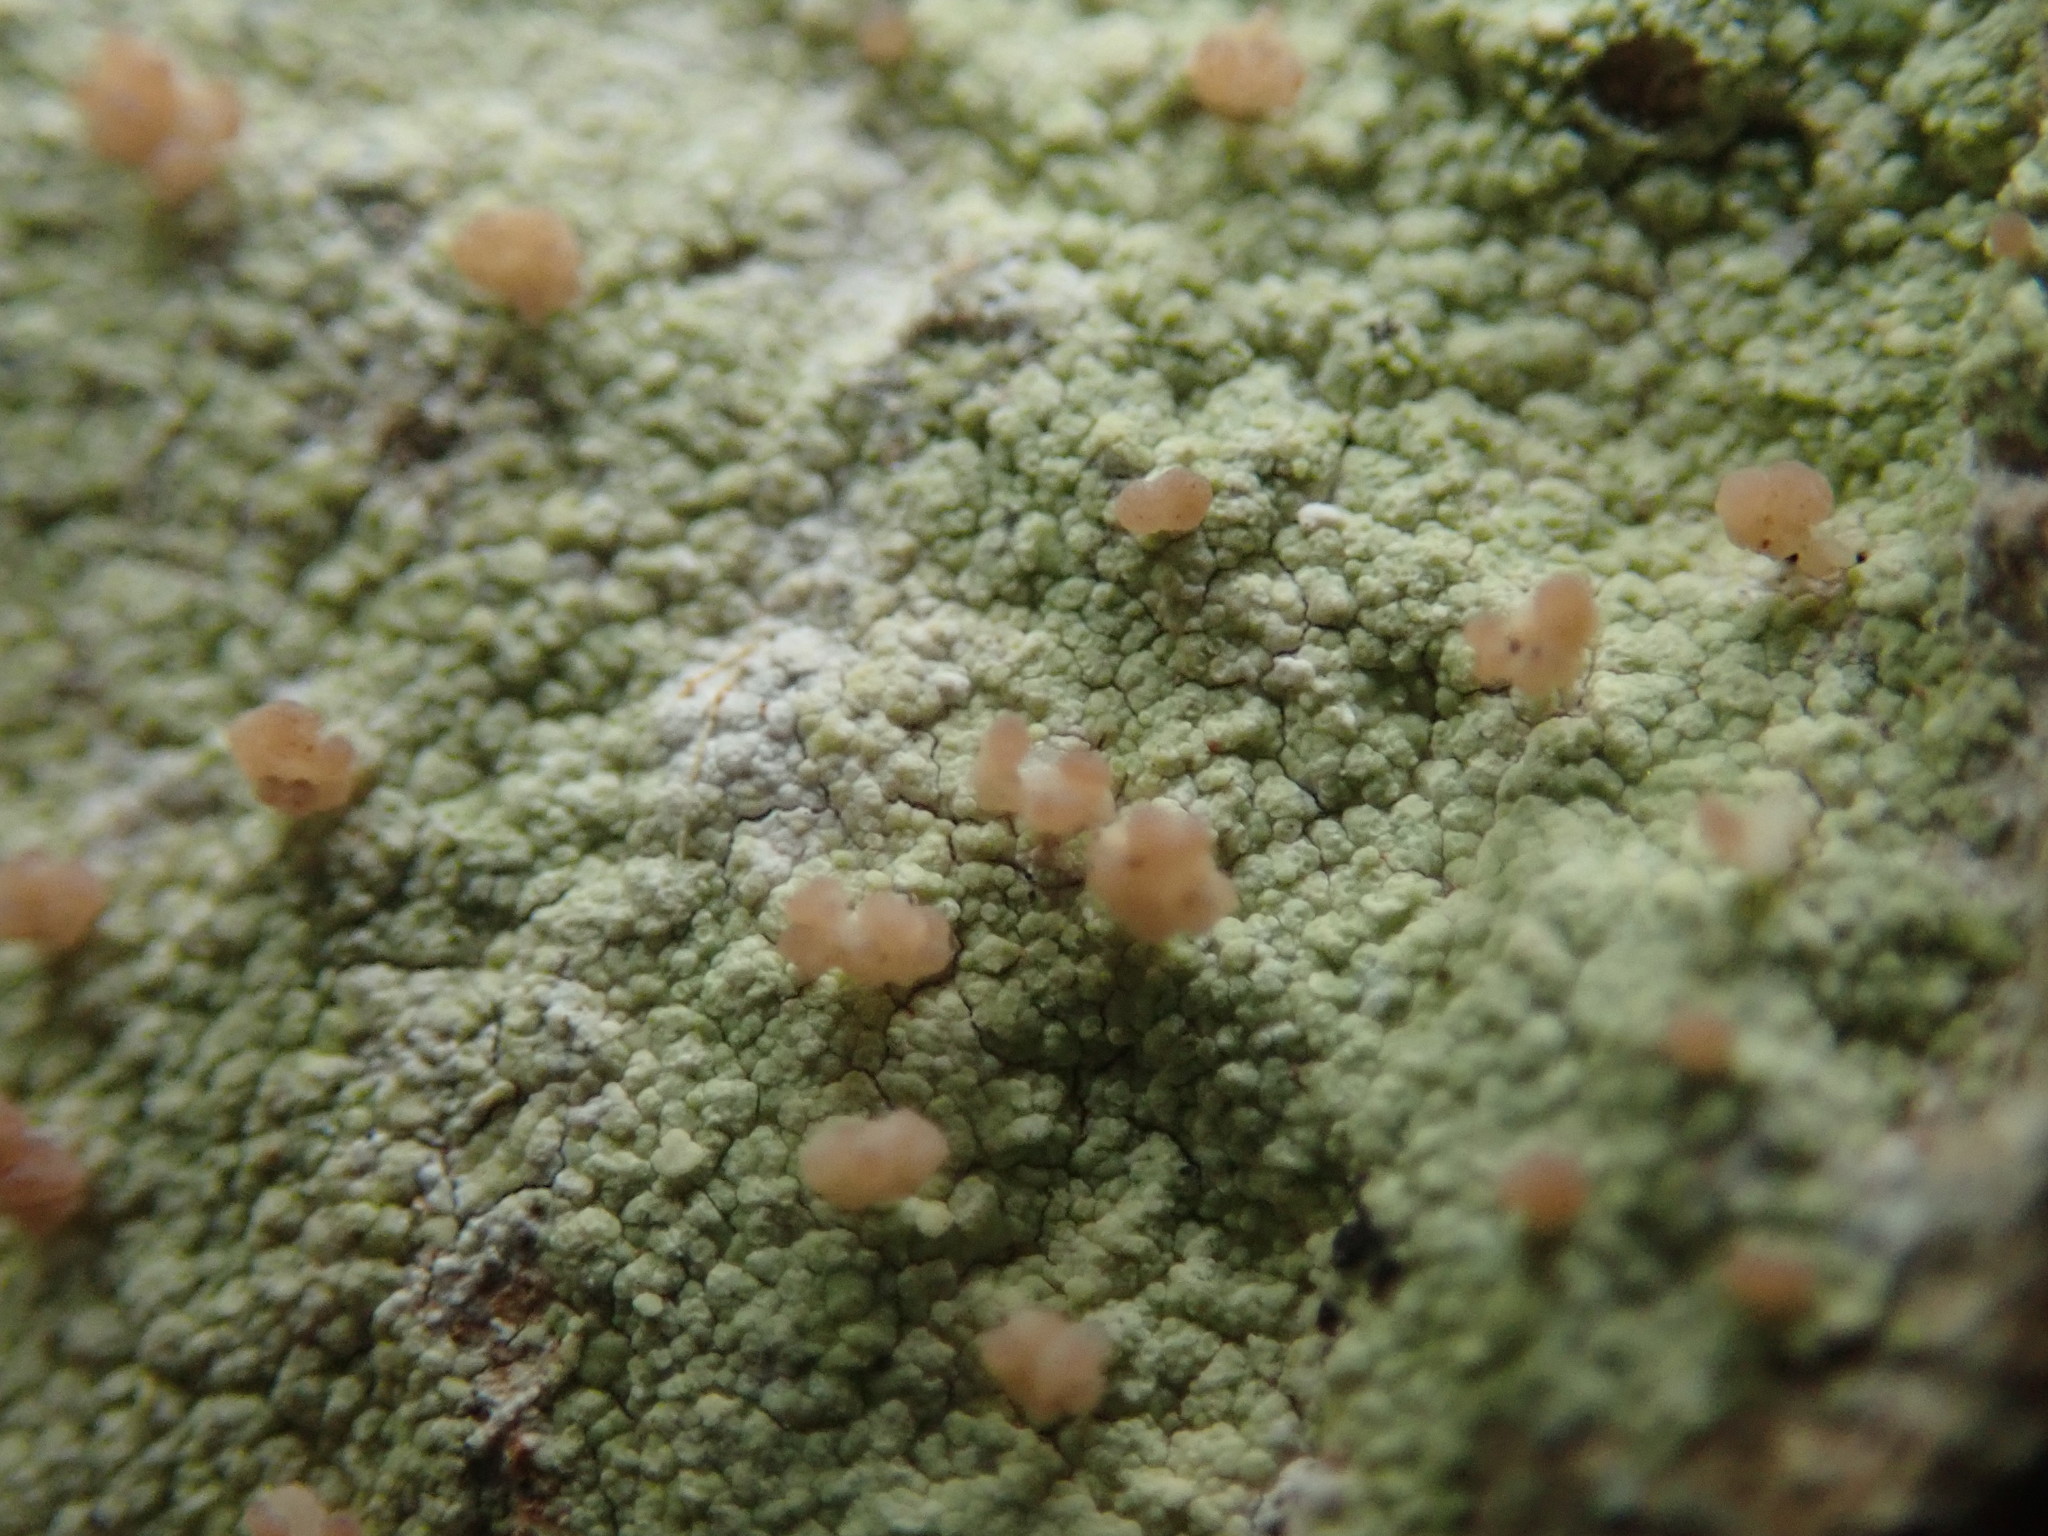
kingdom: Fungi
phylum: Ascomycota
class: Lecanoromycetes
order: Baeomycetales
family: Baeomycetaceae
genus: Baeomyces
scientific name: Baeomyces rufus
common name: Brown beret lichen
